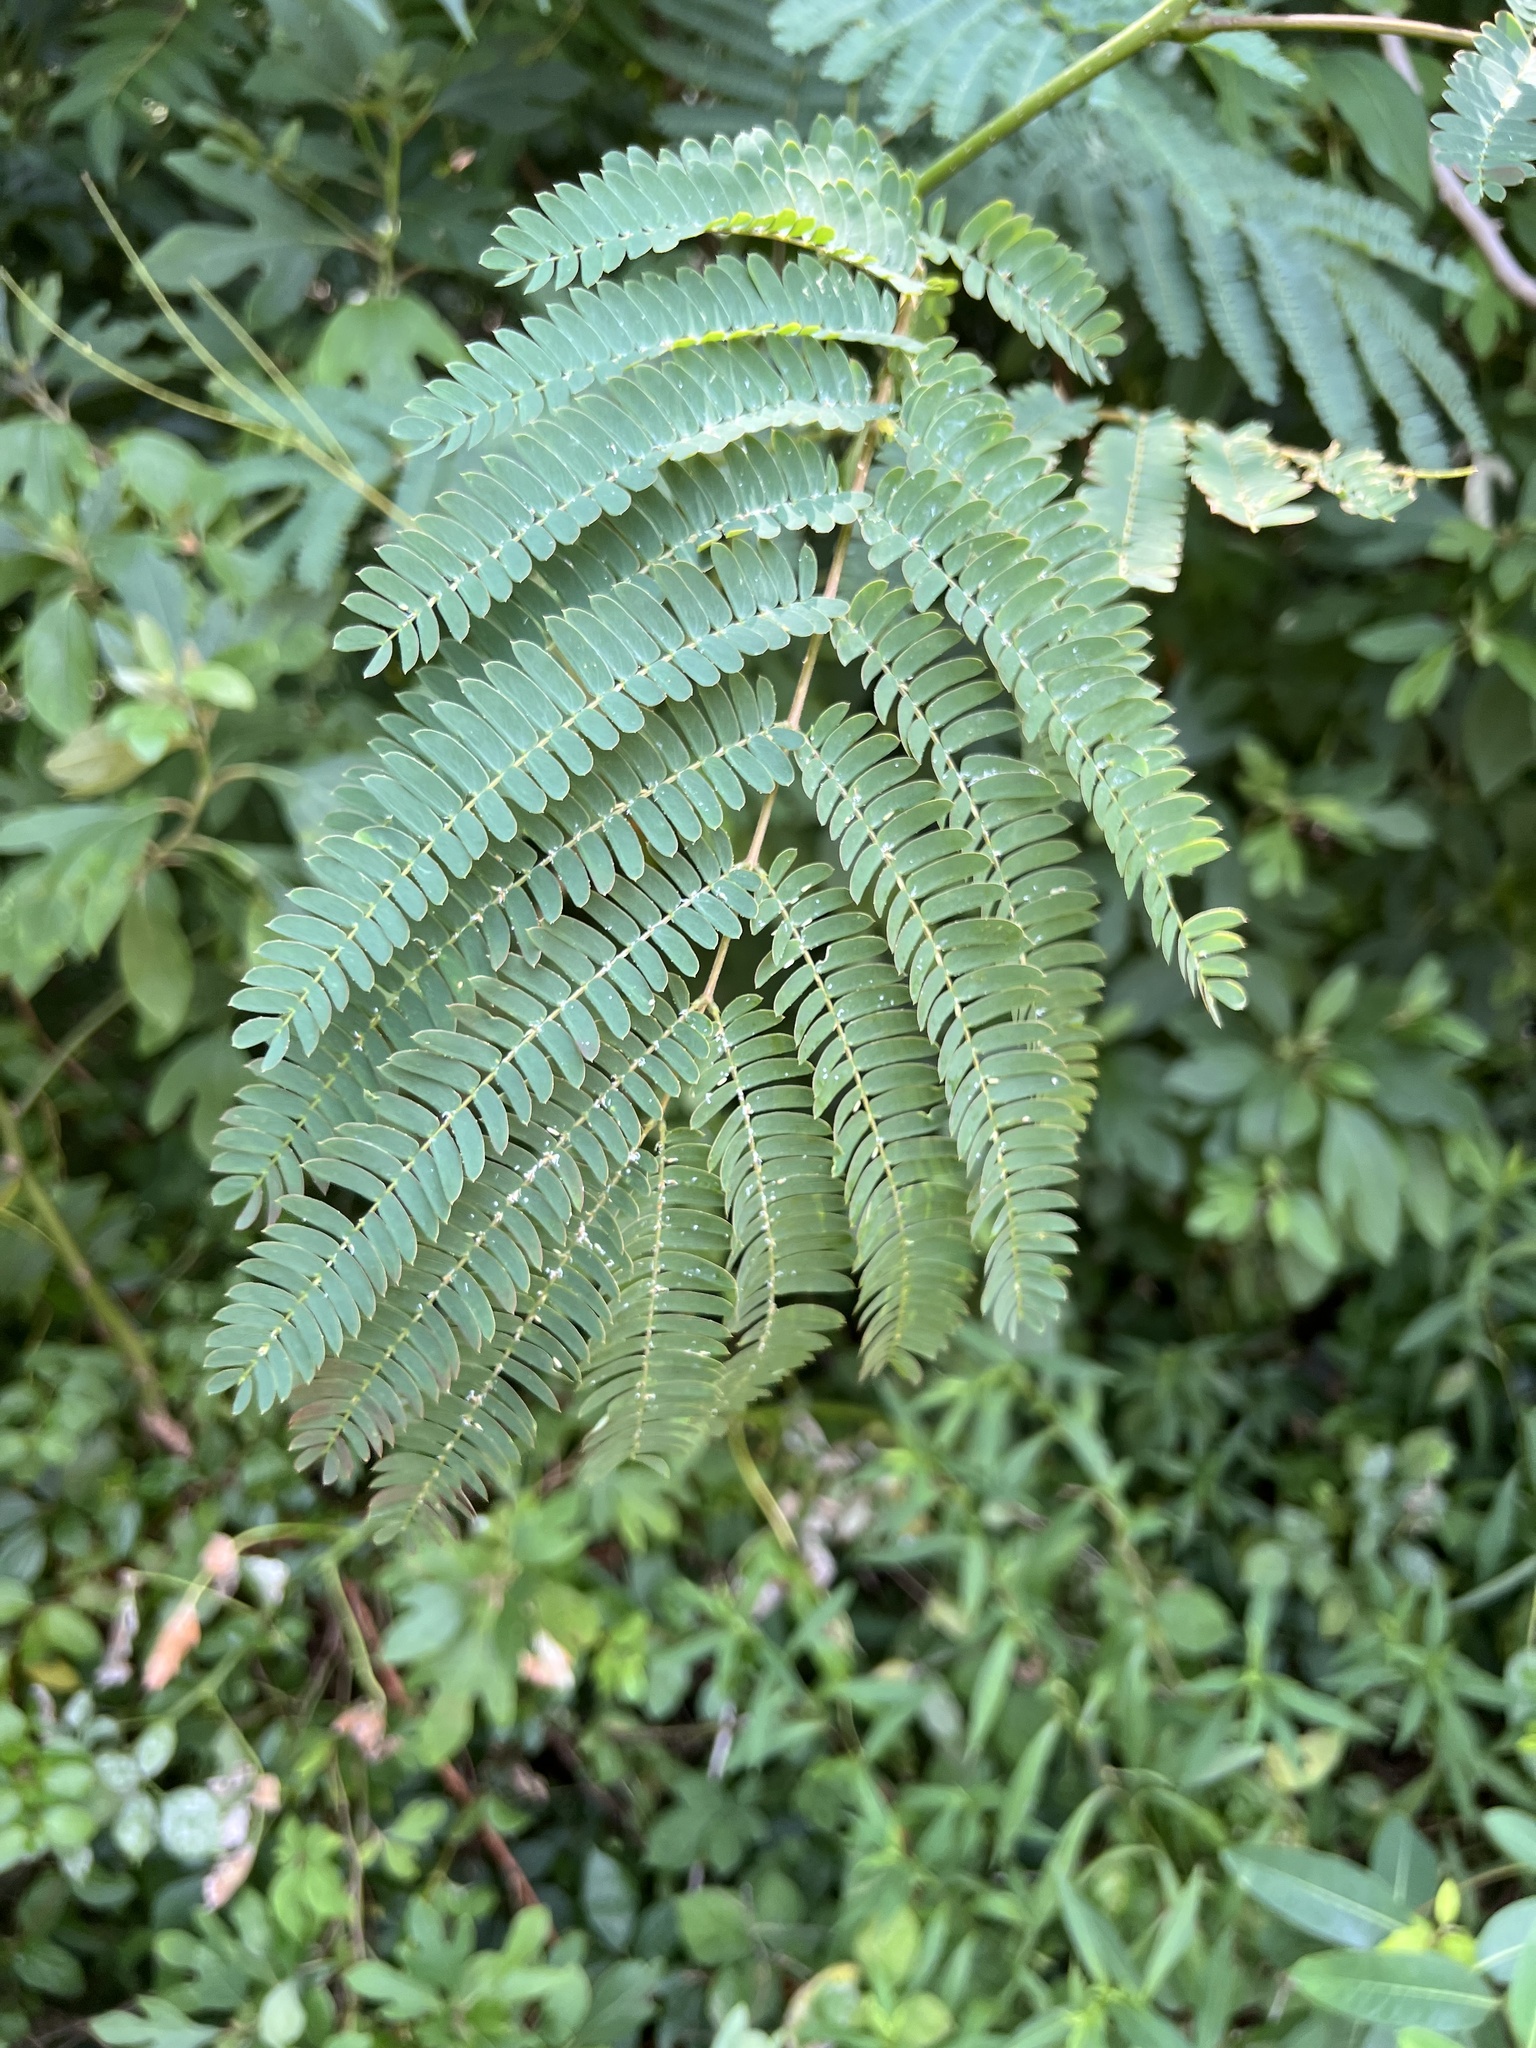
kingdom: Plantae
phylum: Tracheophyta
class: Magnoliopsida
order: Fabales
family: Fabaceae
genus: Albizia
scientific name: Albizia julibrissin
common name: Silktree
